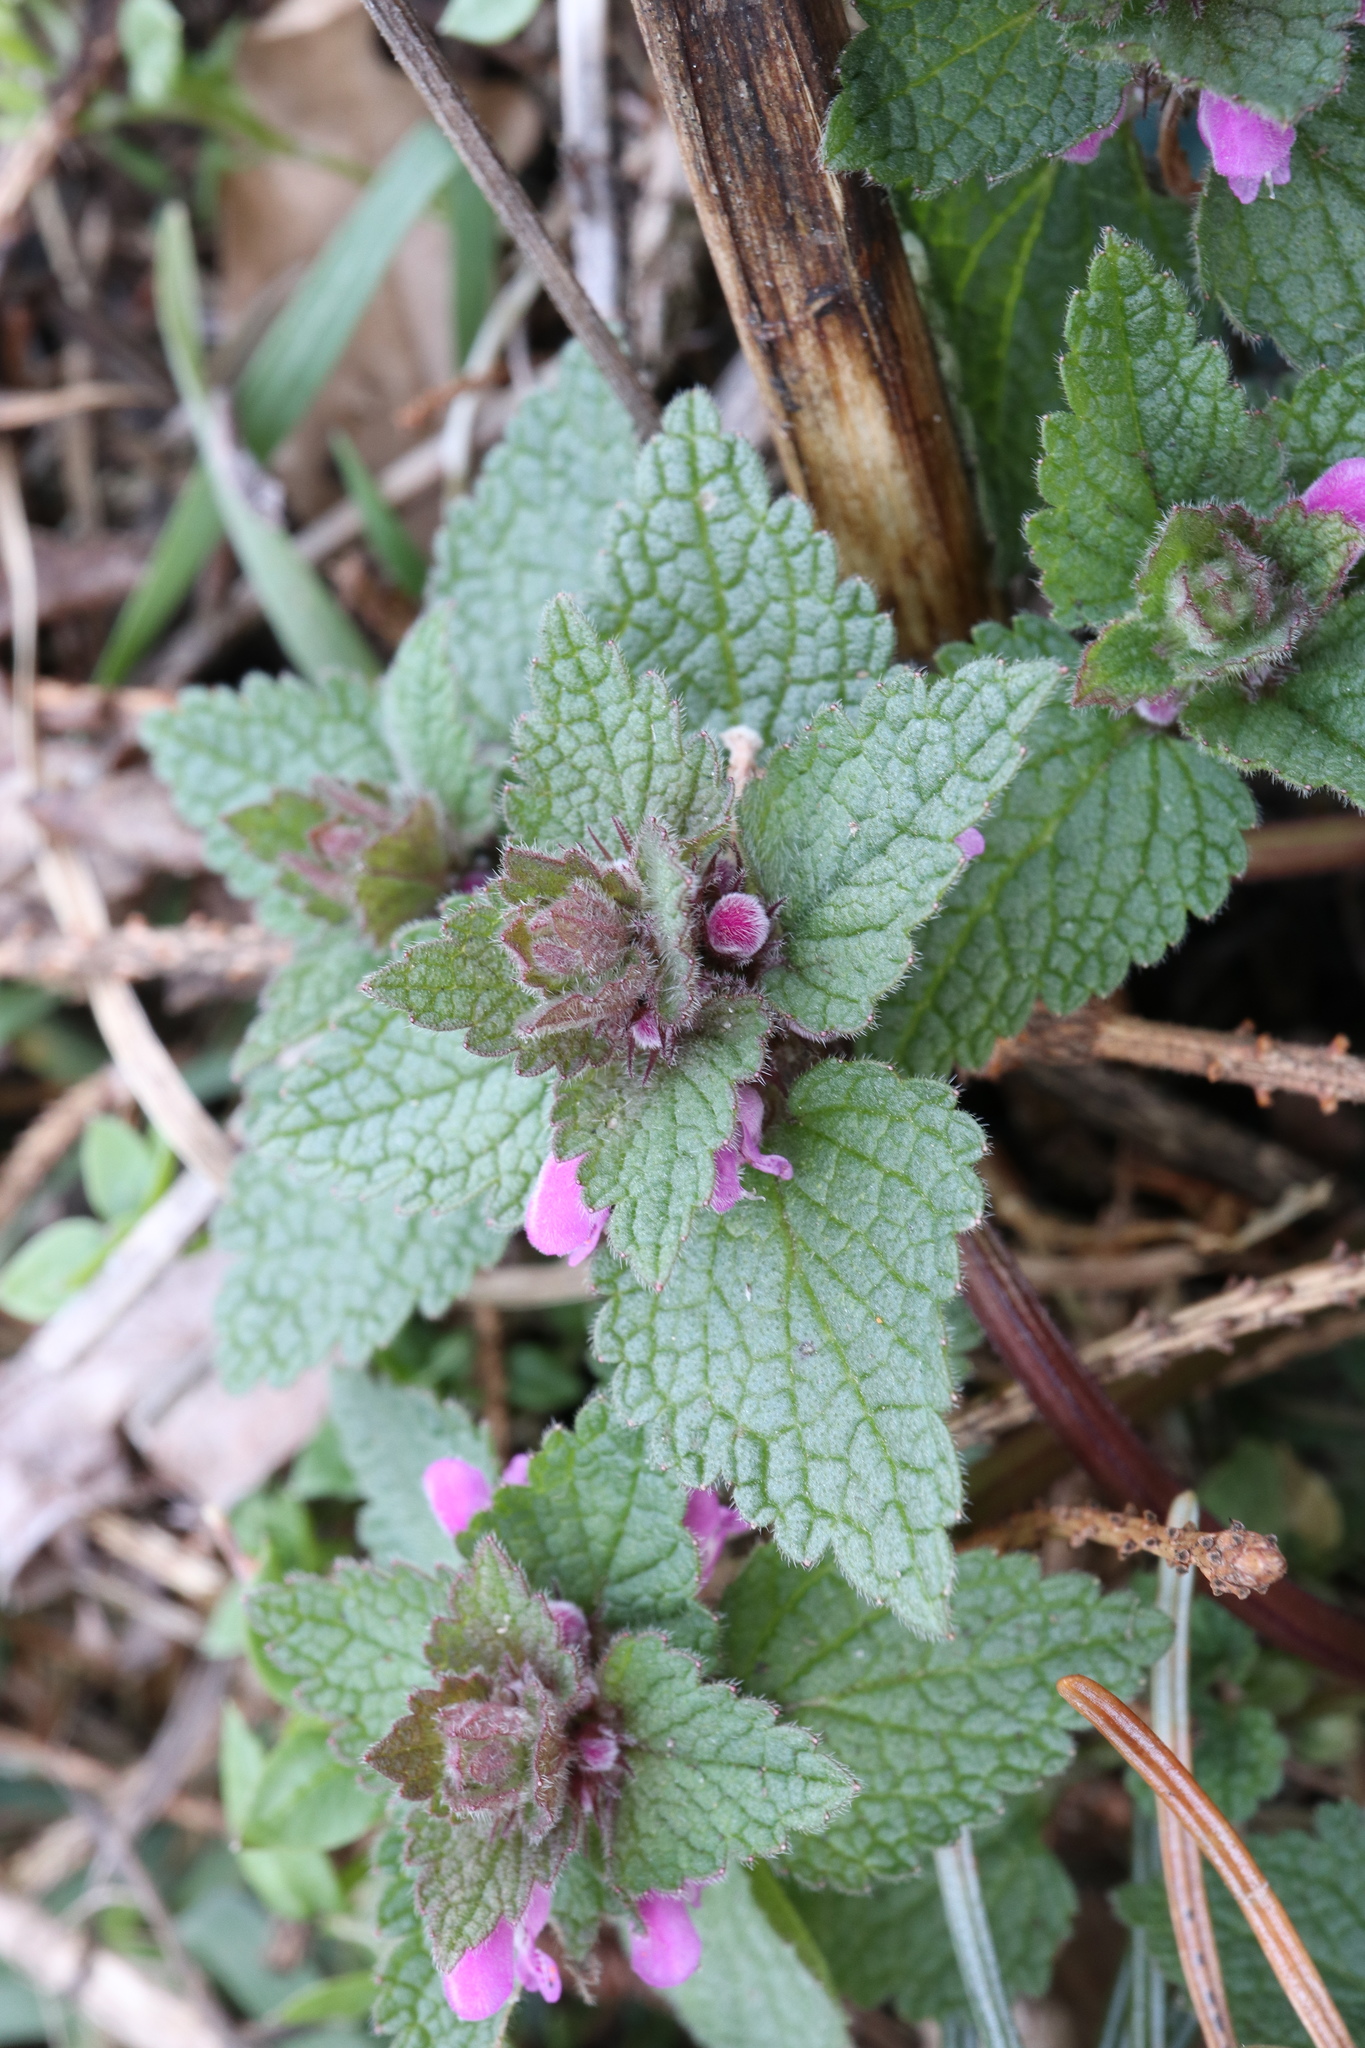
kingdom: Plantae
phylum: Tracheophyta
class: Magnoliopsida
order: Lamiales
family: Lamiaceae
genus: Lamium
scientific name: Lamium purpureum
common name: Red dead-nettle
